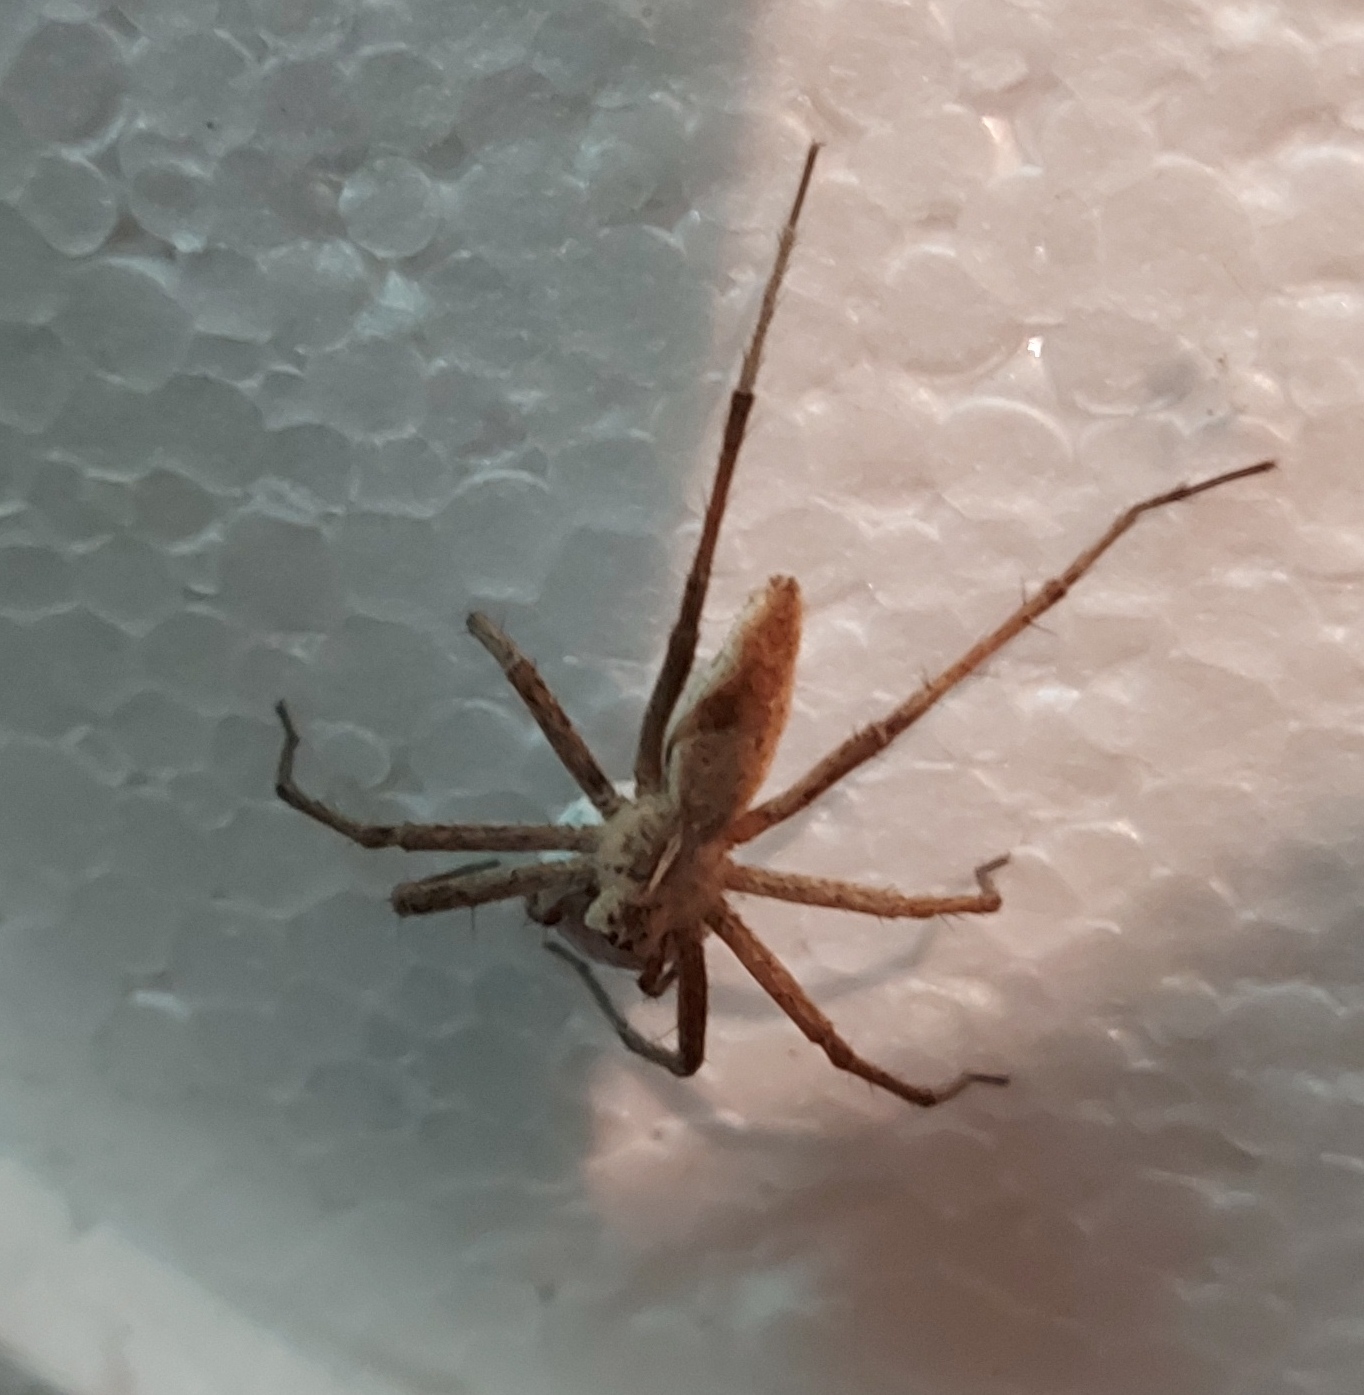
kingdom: Animalia
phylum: Arthropoda
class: Arachnida
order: Araneae
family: Pisauridae
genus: Pisaura
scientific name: Pisaura mirabilis
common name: Tent spider
